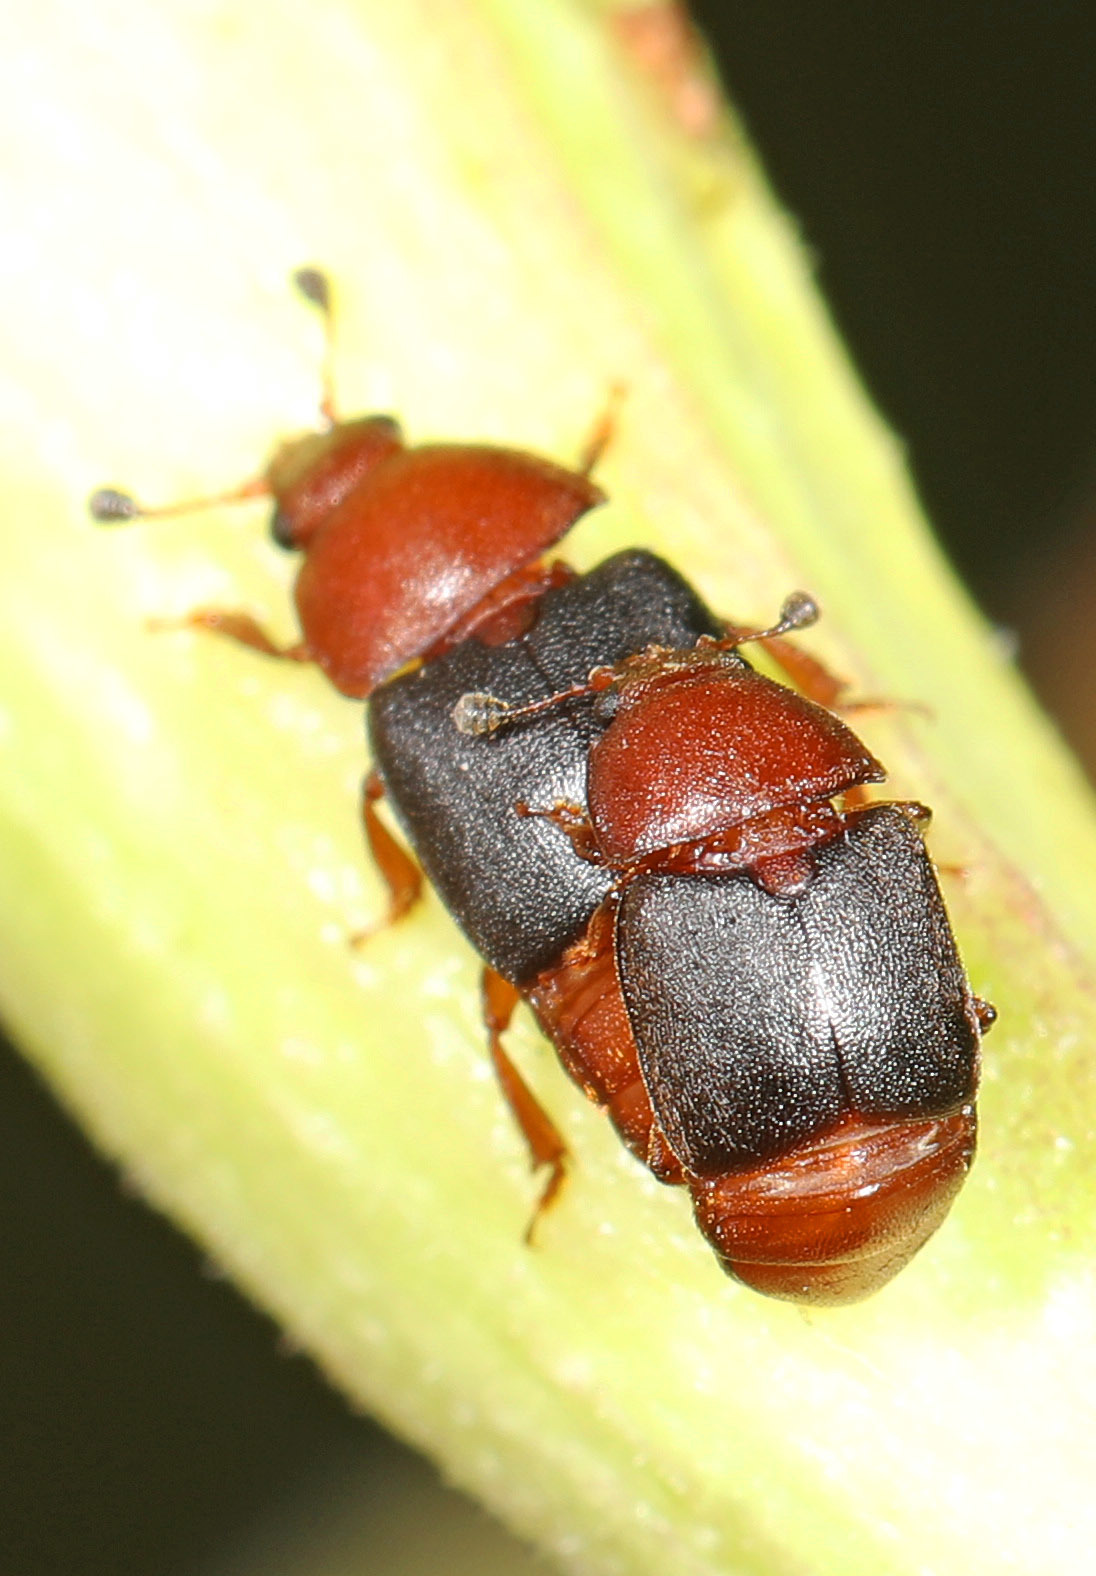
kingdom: Animalia
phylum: Arthropoda
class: Insecta
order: Coleoptera
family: Nitidulidae
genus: Carpophilus
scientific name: Carpophilus
